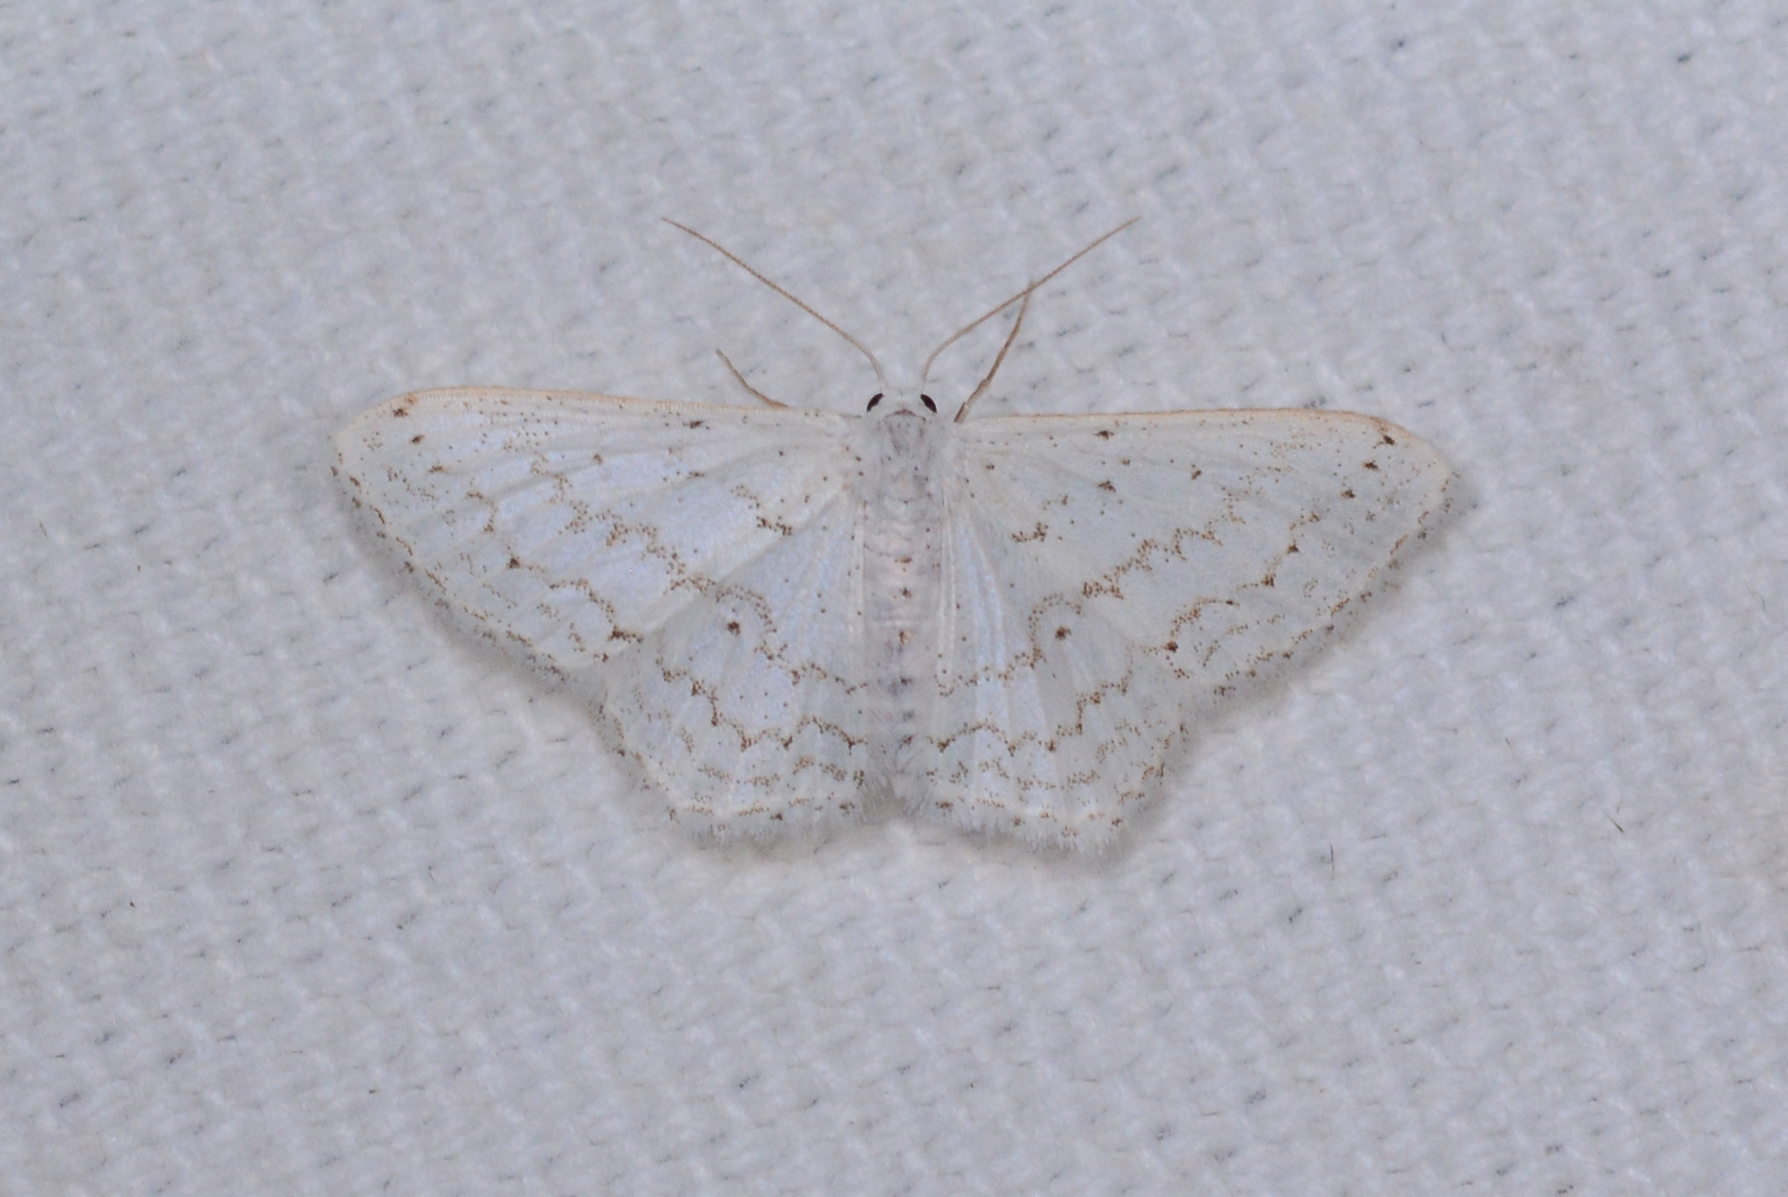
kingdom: Animalia
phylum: Arthropoda
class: Insecta
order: Lepidoptera
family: Geometridae
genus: Idaea
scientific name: Idaea tacturata
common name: Dot-lined wave
